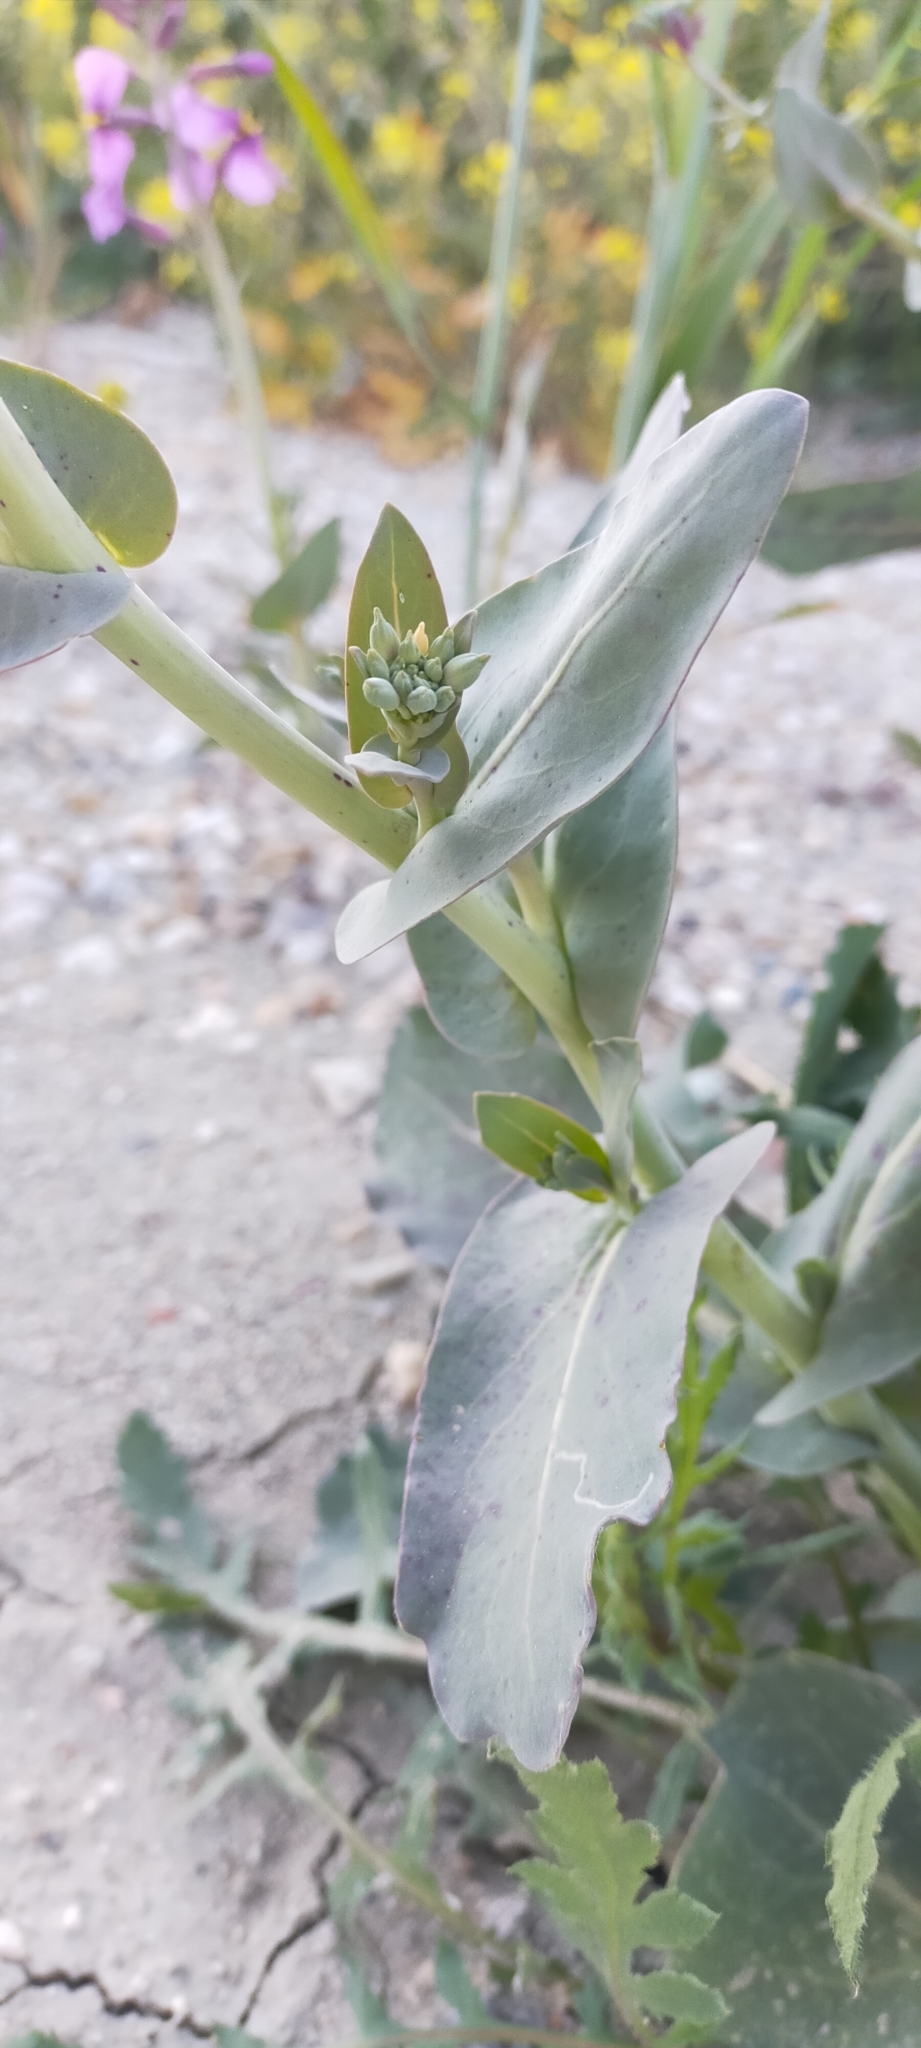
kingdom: Plantae
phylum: Tracheophyta
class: Magnoliopsida
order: Brassicales
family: Brassicaceae
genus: Moricandia
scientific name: Moricandia moricandioides
